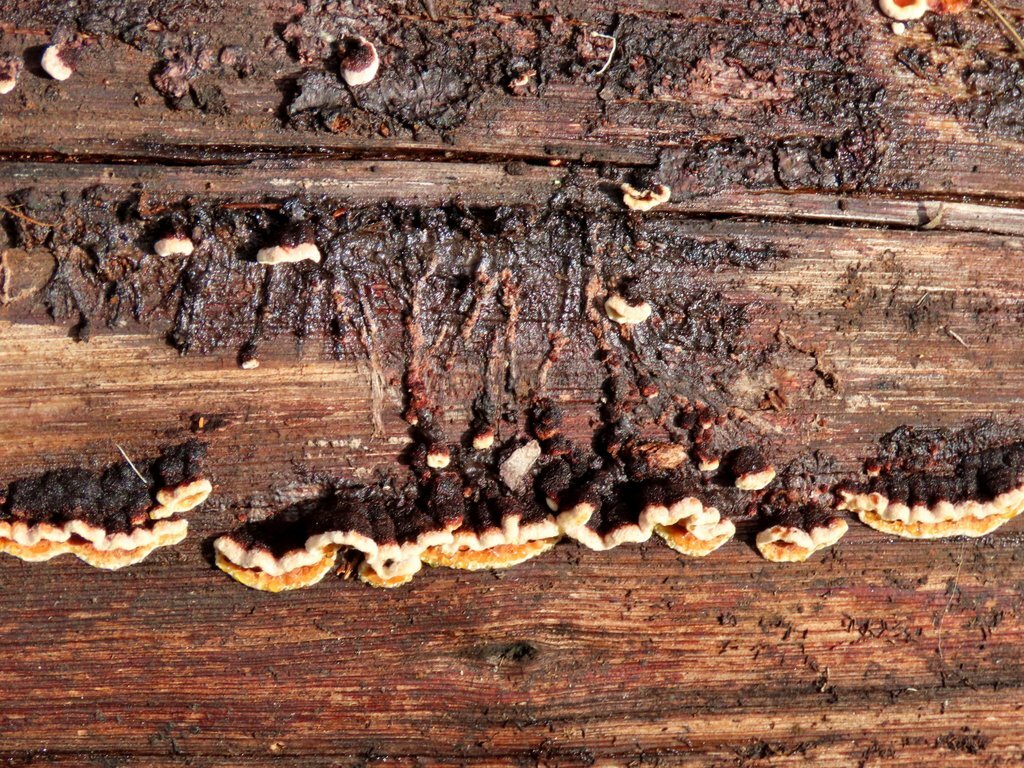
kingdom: Fungi
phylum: Basidiomycota
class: Agaricomycetes
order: Russulales
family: Stereaceae
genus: Xylobolus
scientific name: Xylobolus illudens
